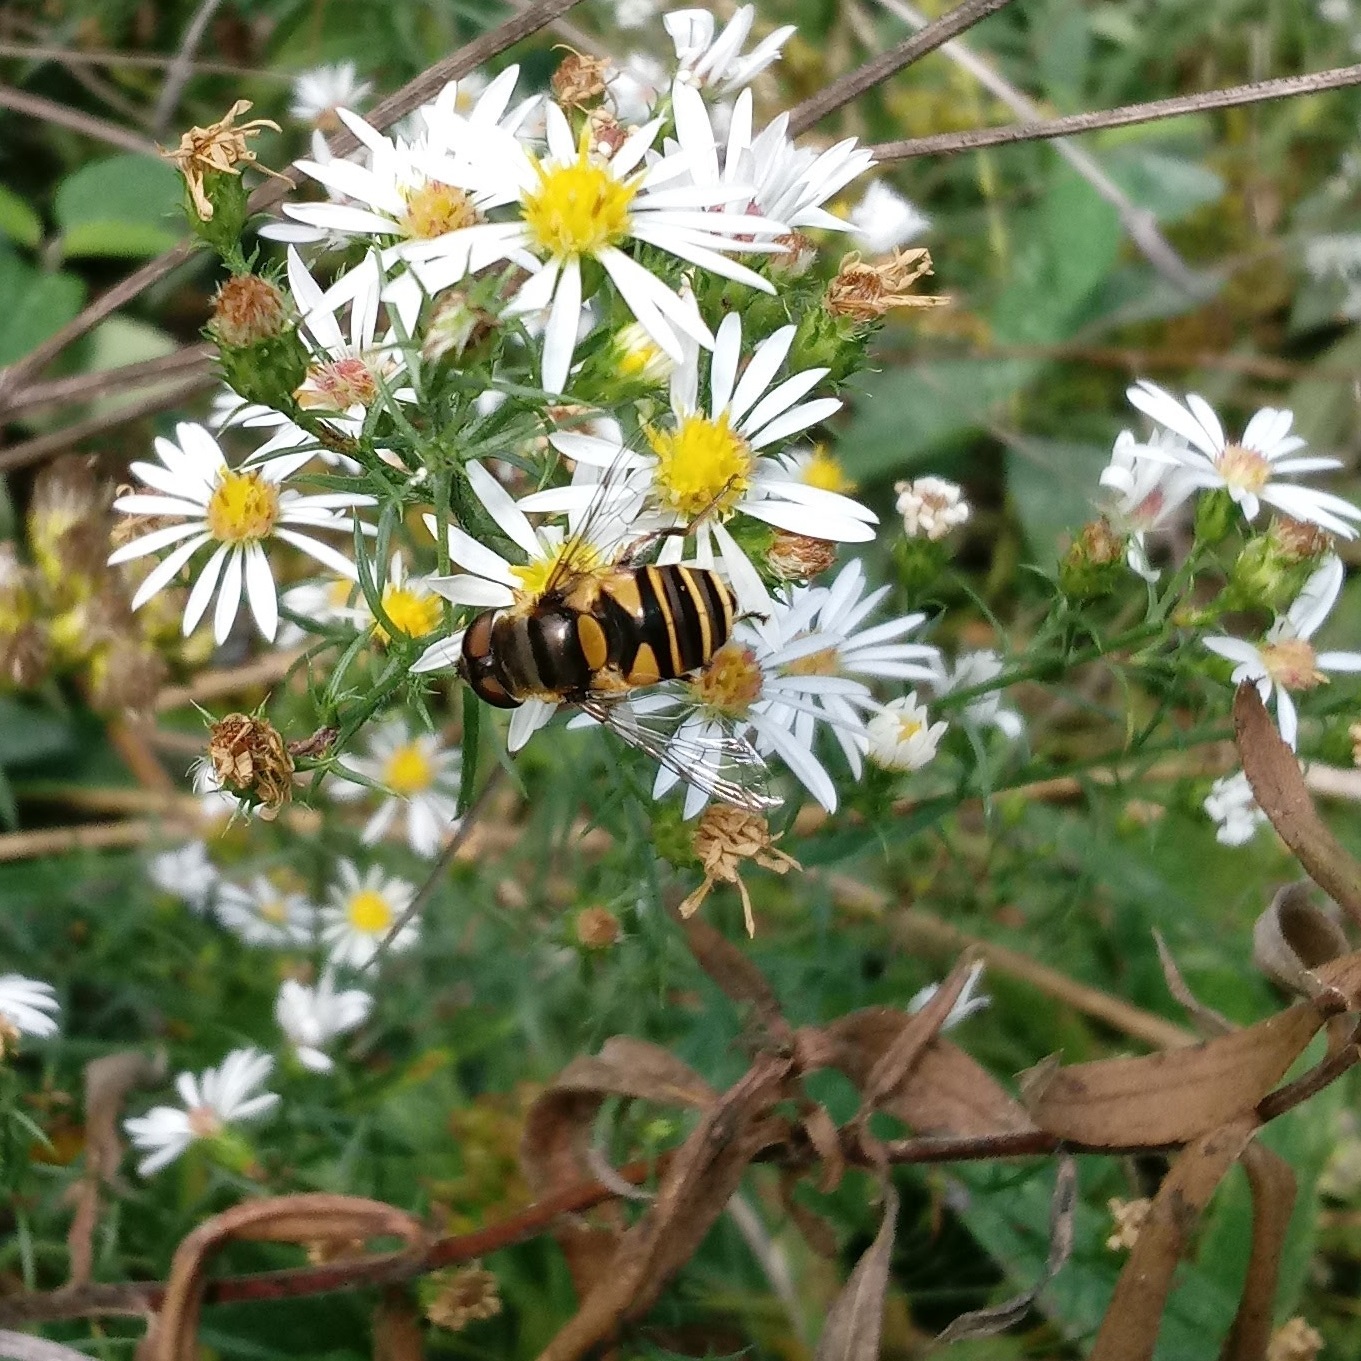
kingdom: Animalia
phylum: Arthropoda
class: Insecta
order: Diptera
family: Syrphidae
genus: Eristalis
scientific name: Eristalis transversa
